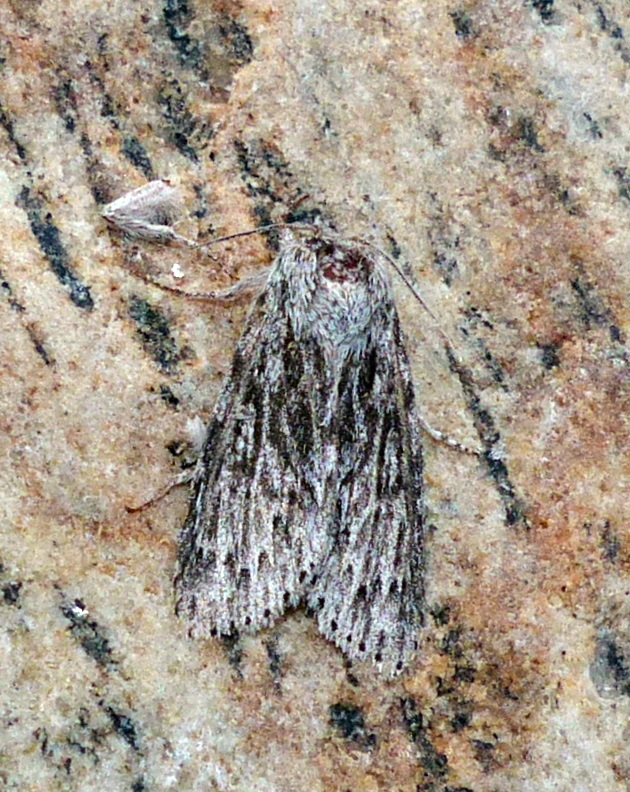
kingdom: Animalia
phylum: Arthropoda
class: Insecta
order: Lepidoptera
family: Noctuidae
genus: Acronicta
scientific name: Acronicta oblinita
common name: Smeared dagger
